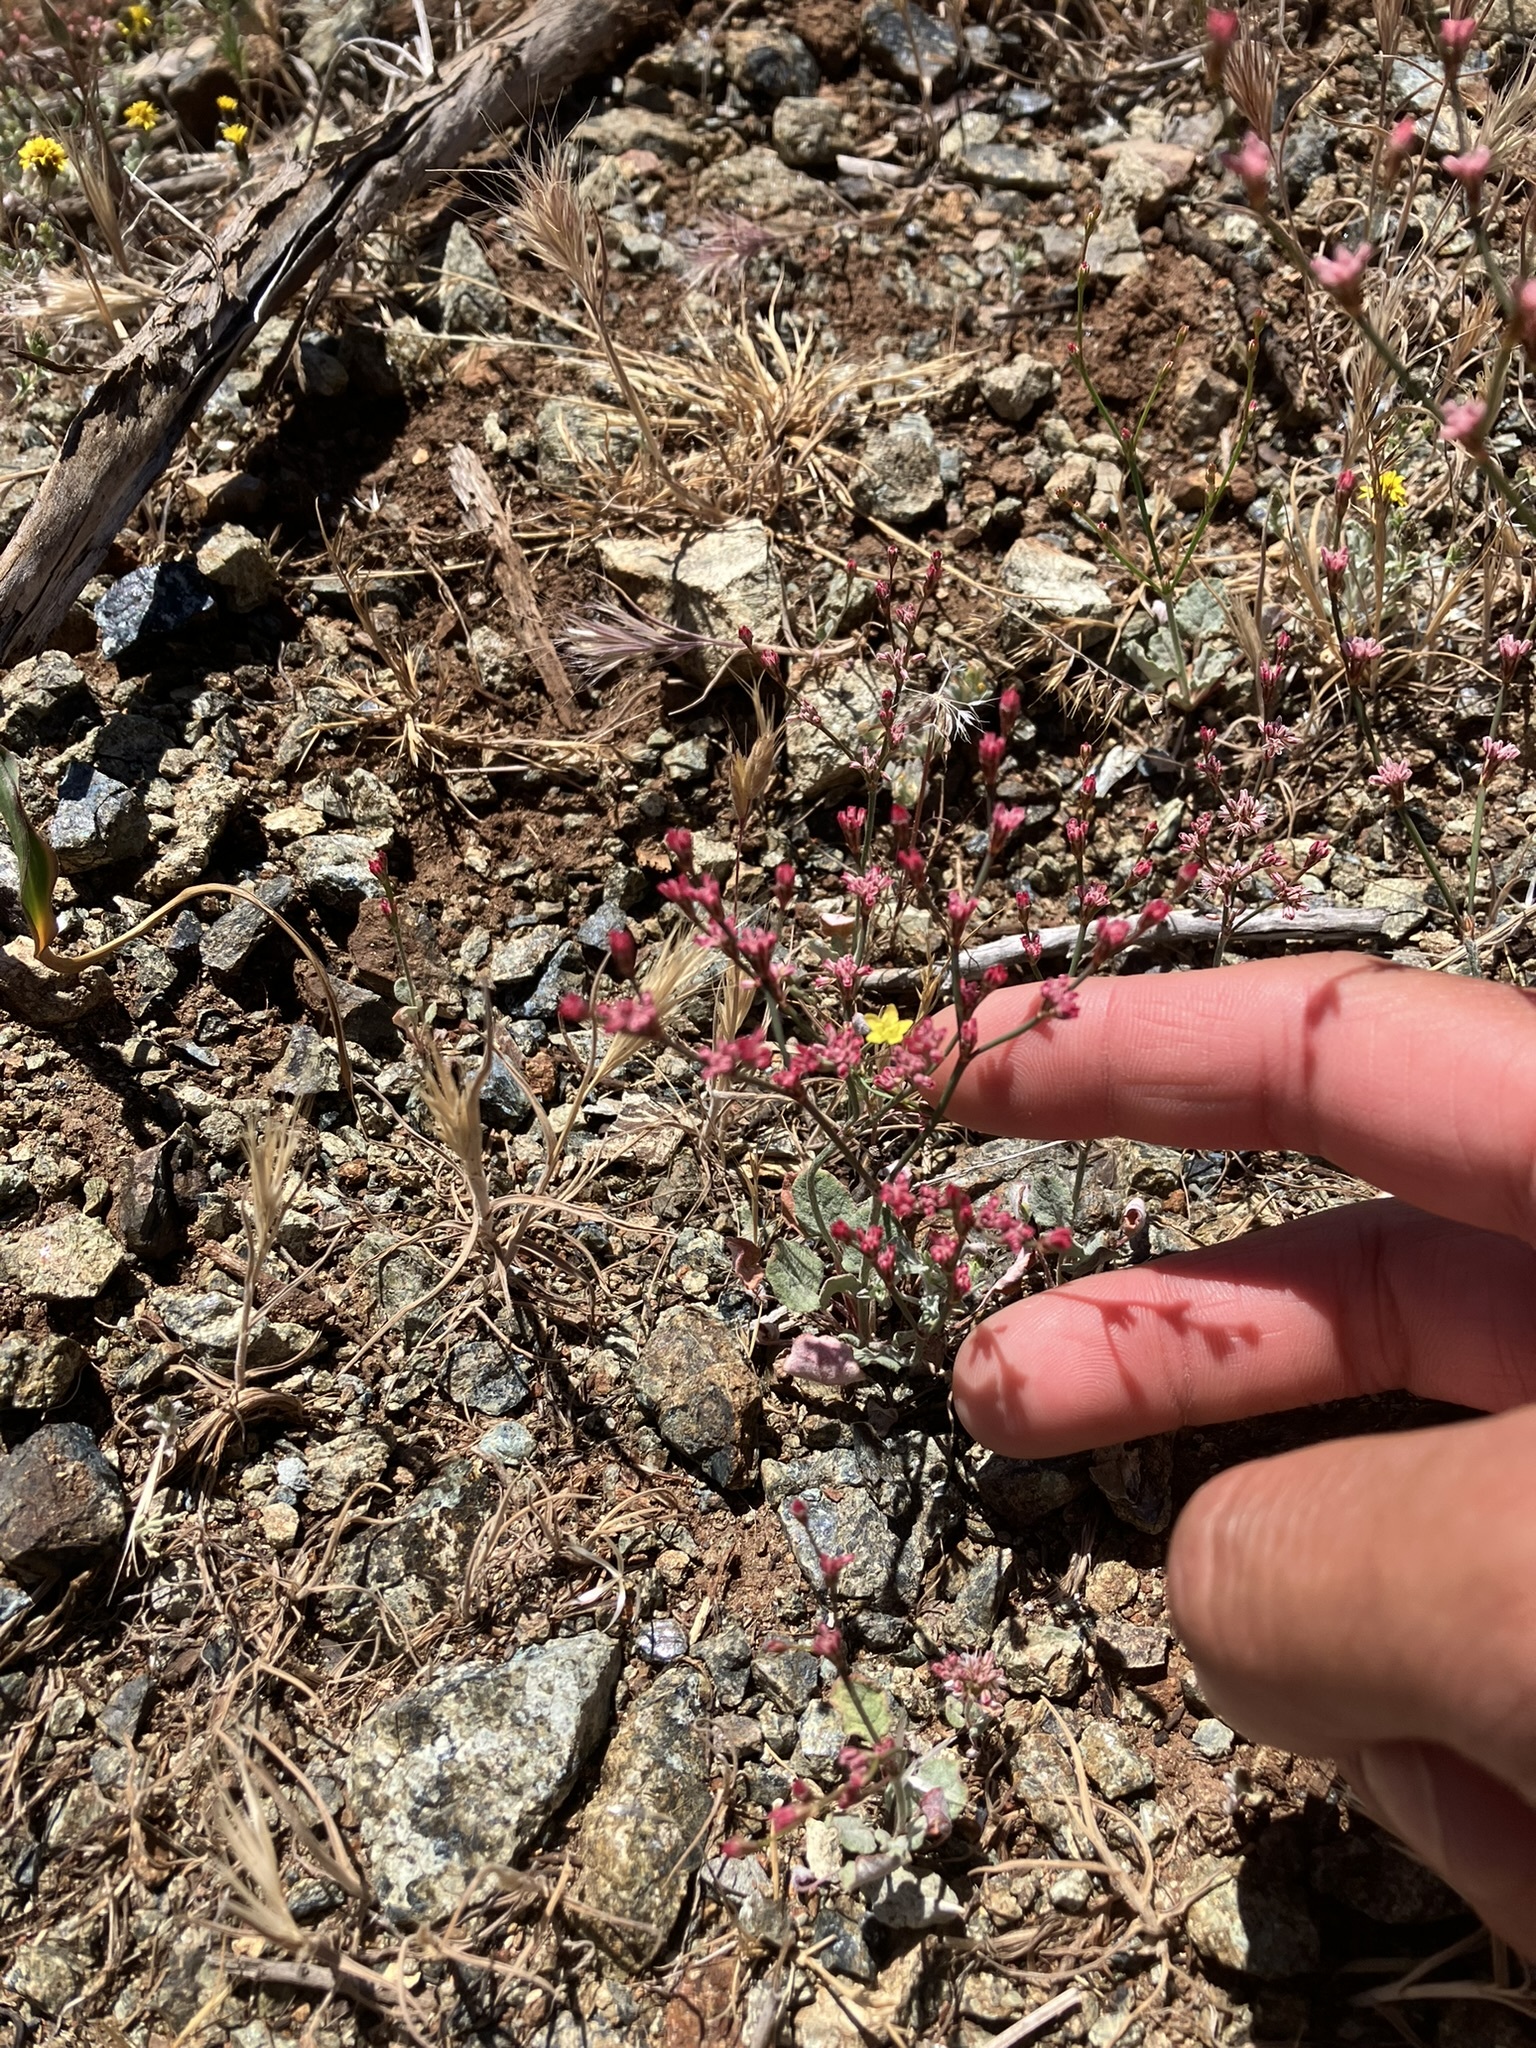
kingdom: Plantae
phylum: Tracheophyta
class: Magnoliopsida
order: Caryophyllales
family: Polygonaceae
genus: Eriogonum
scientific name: Eriogonum luteolum
